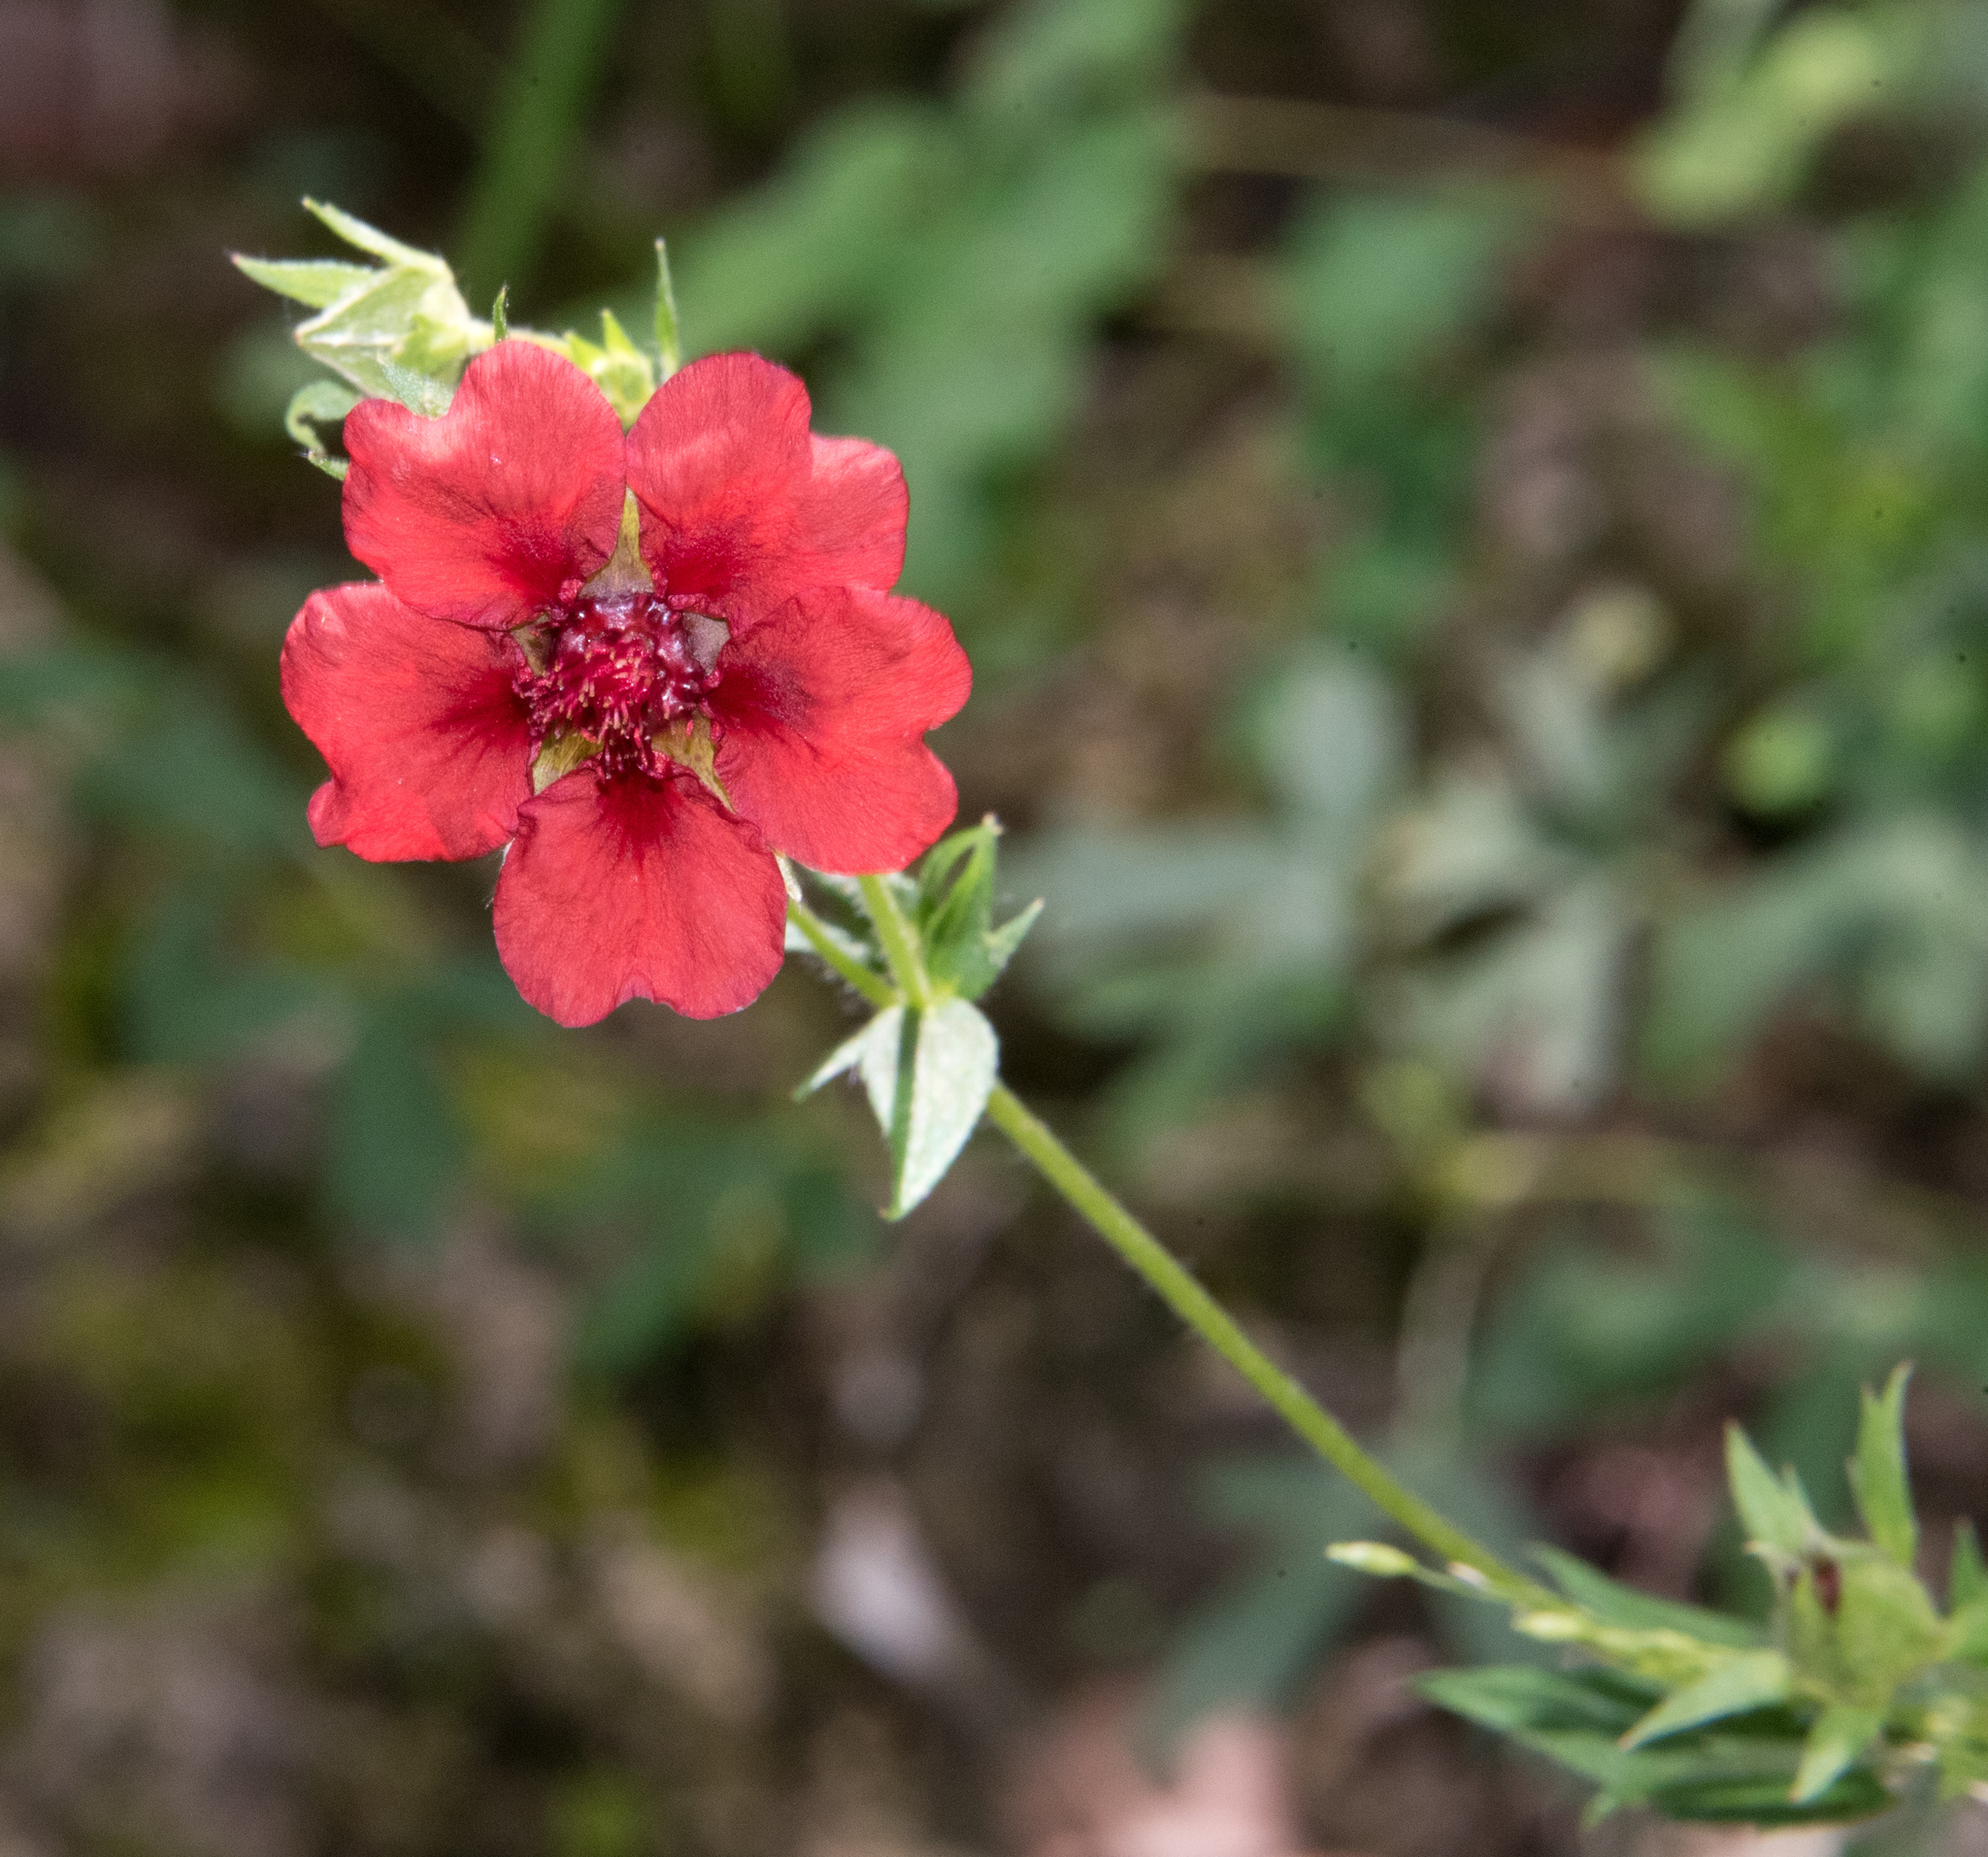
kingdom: Plantae
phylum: Tracheophyta
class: Magnoliopsida
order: Rosales
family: Rosaceae
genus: Potentilla
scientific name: Potentilla thurberi
